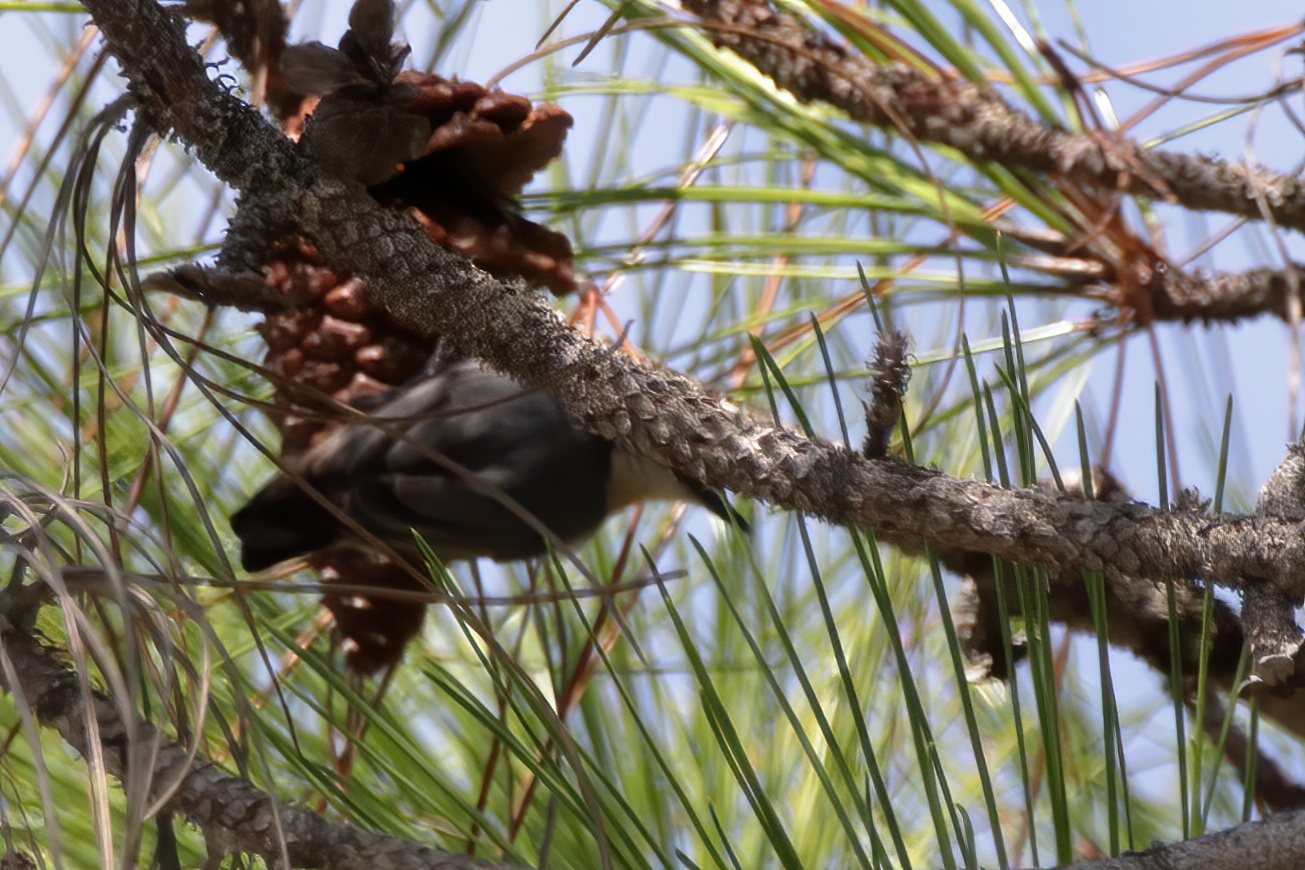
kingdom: Animalia
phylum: Chordata
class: Aves
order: Passeriformes
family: Sittidae
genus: Sitta
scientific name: Sitta pusilla
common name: Brown-headed nuthatch
